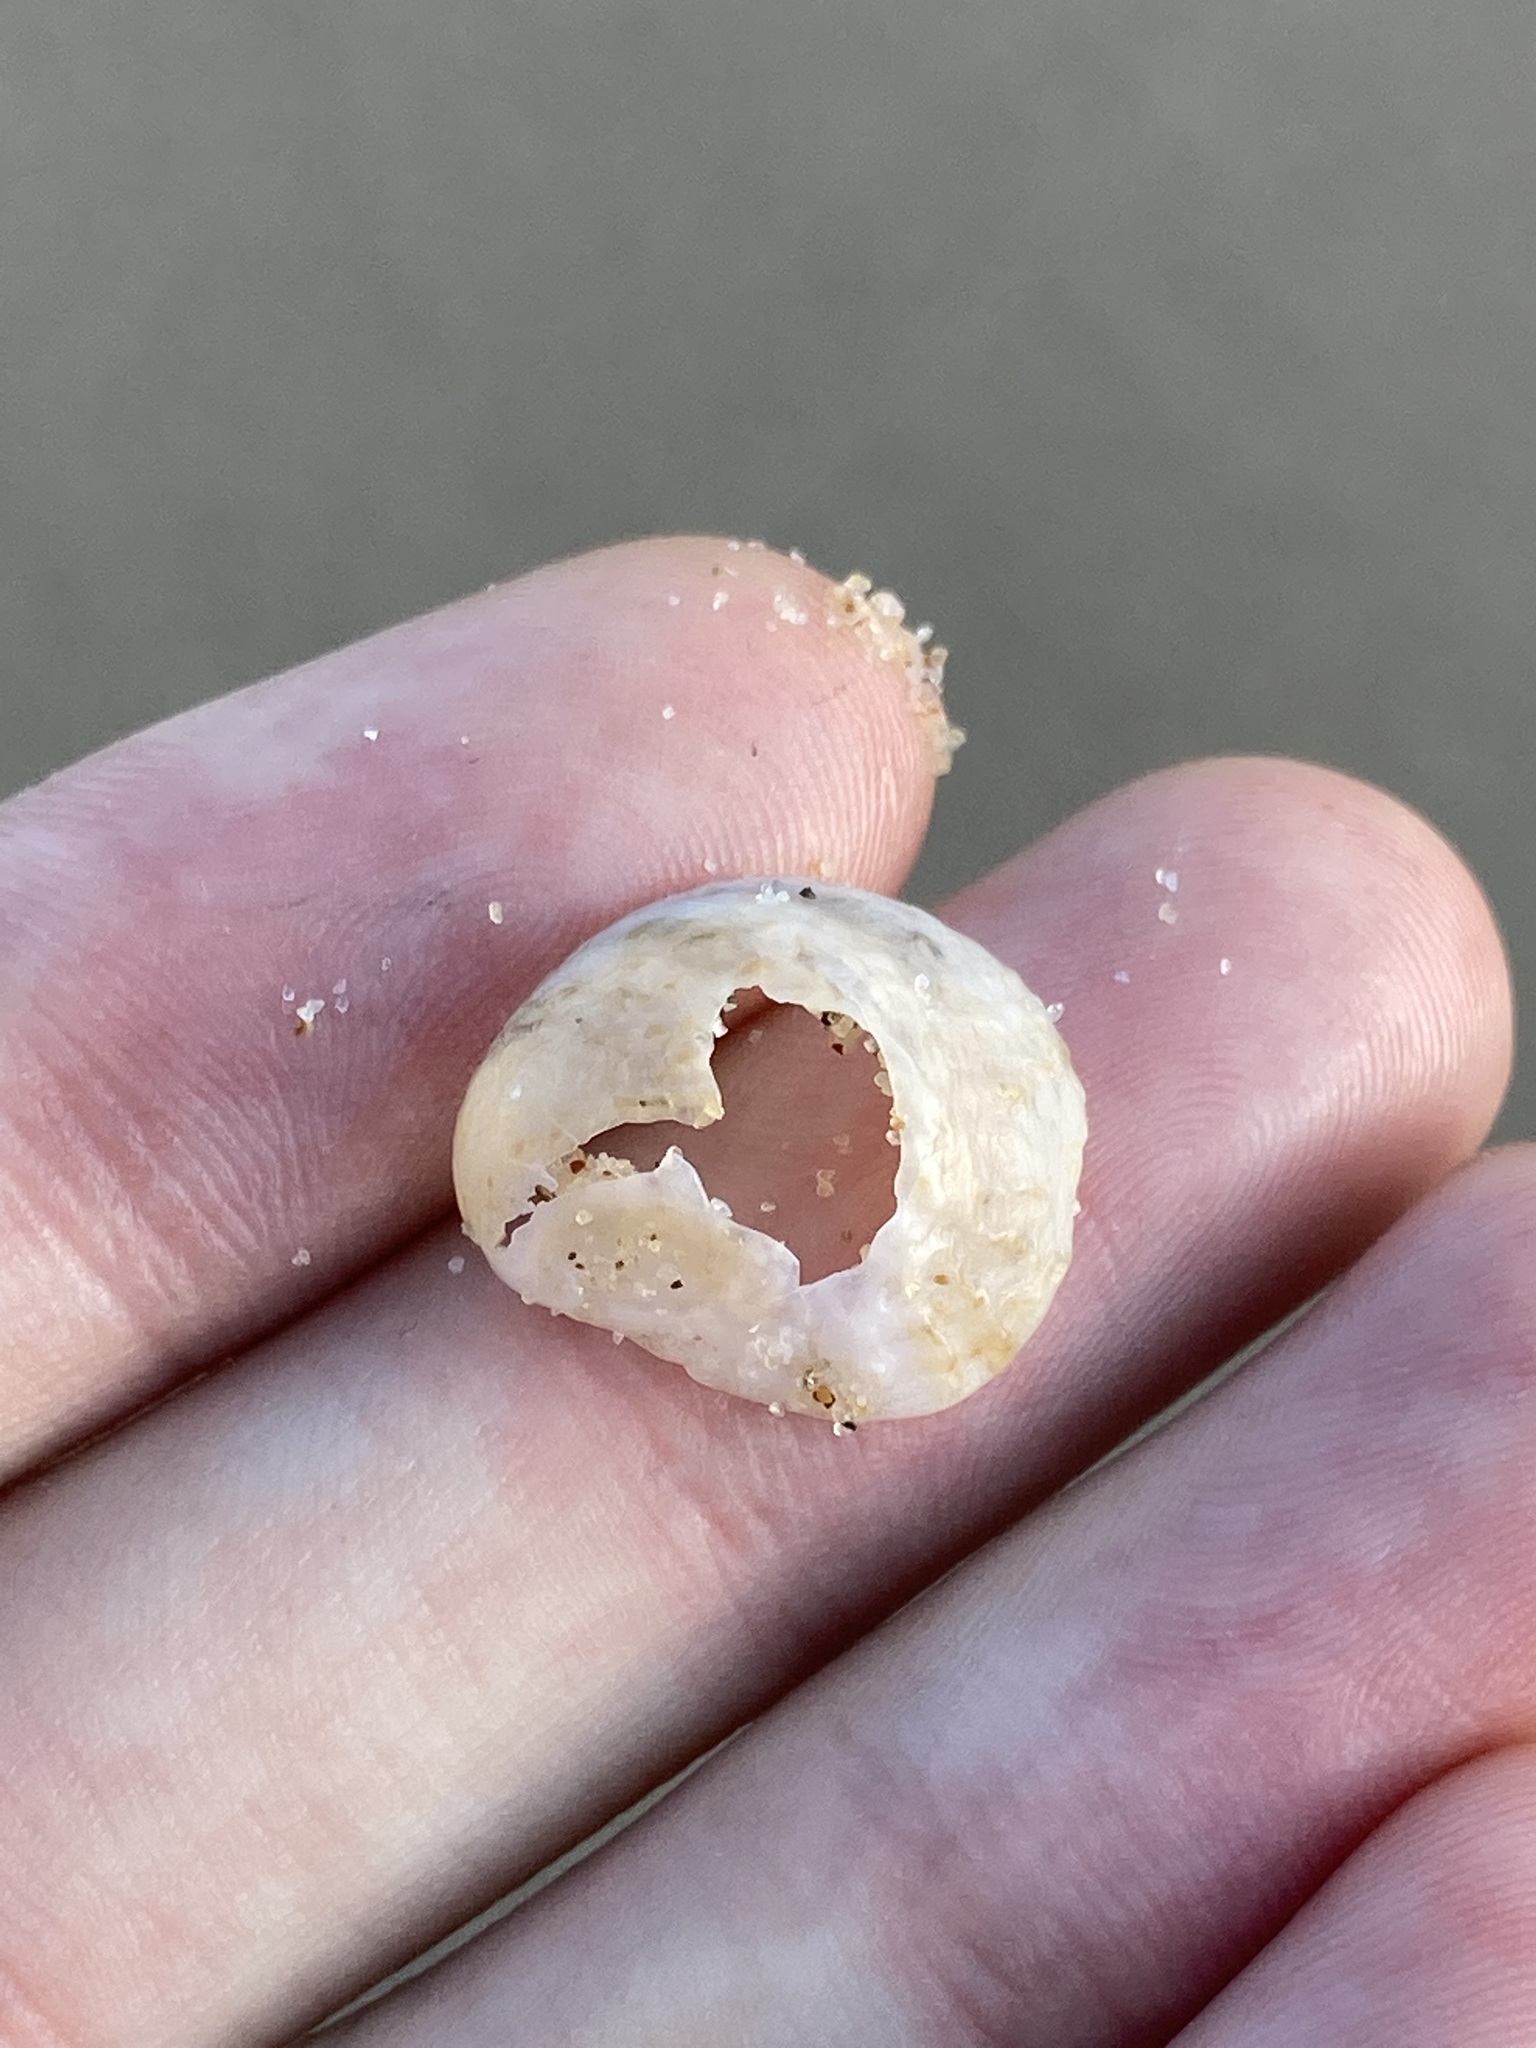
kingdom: Animalia
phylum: Mollusca
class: Gastropoda
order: Littorinimorpha
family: Calyptraeidae
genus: Bostrycapulus
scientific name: Bostrycapulus pritzkeri
